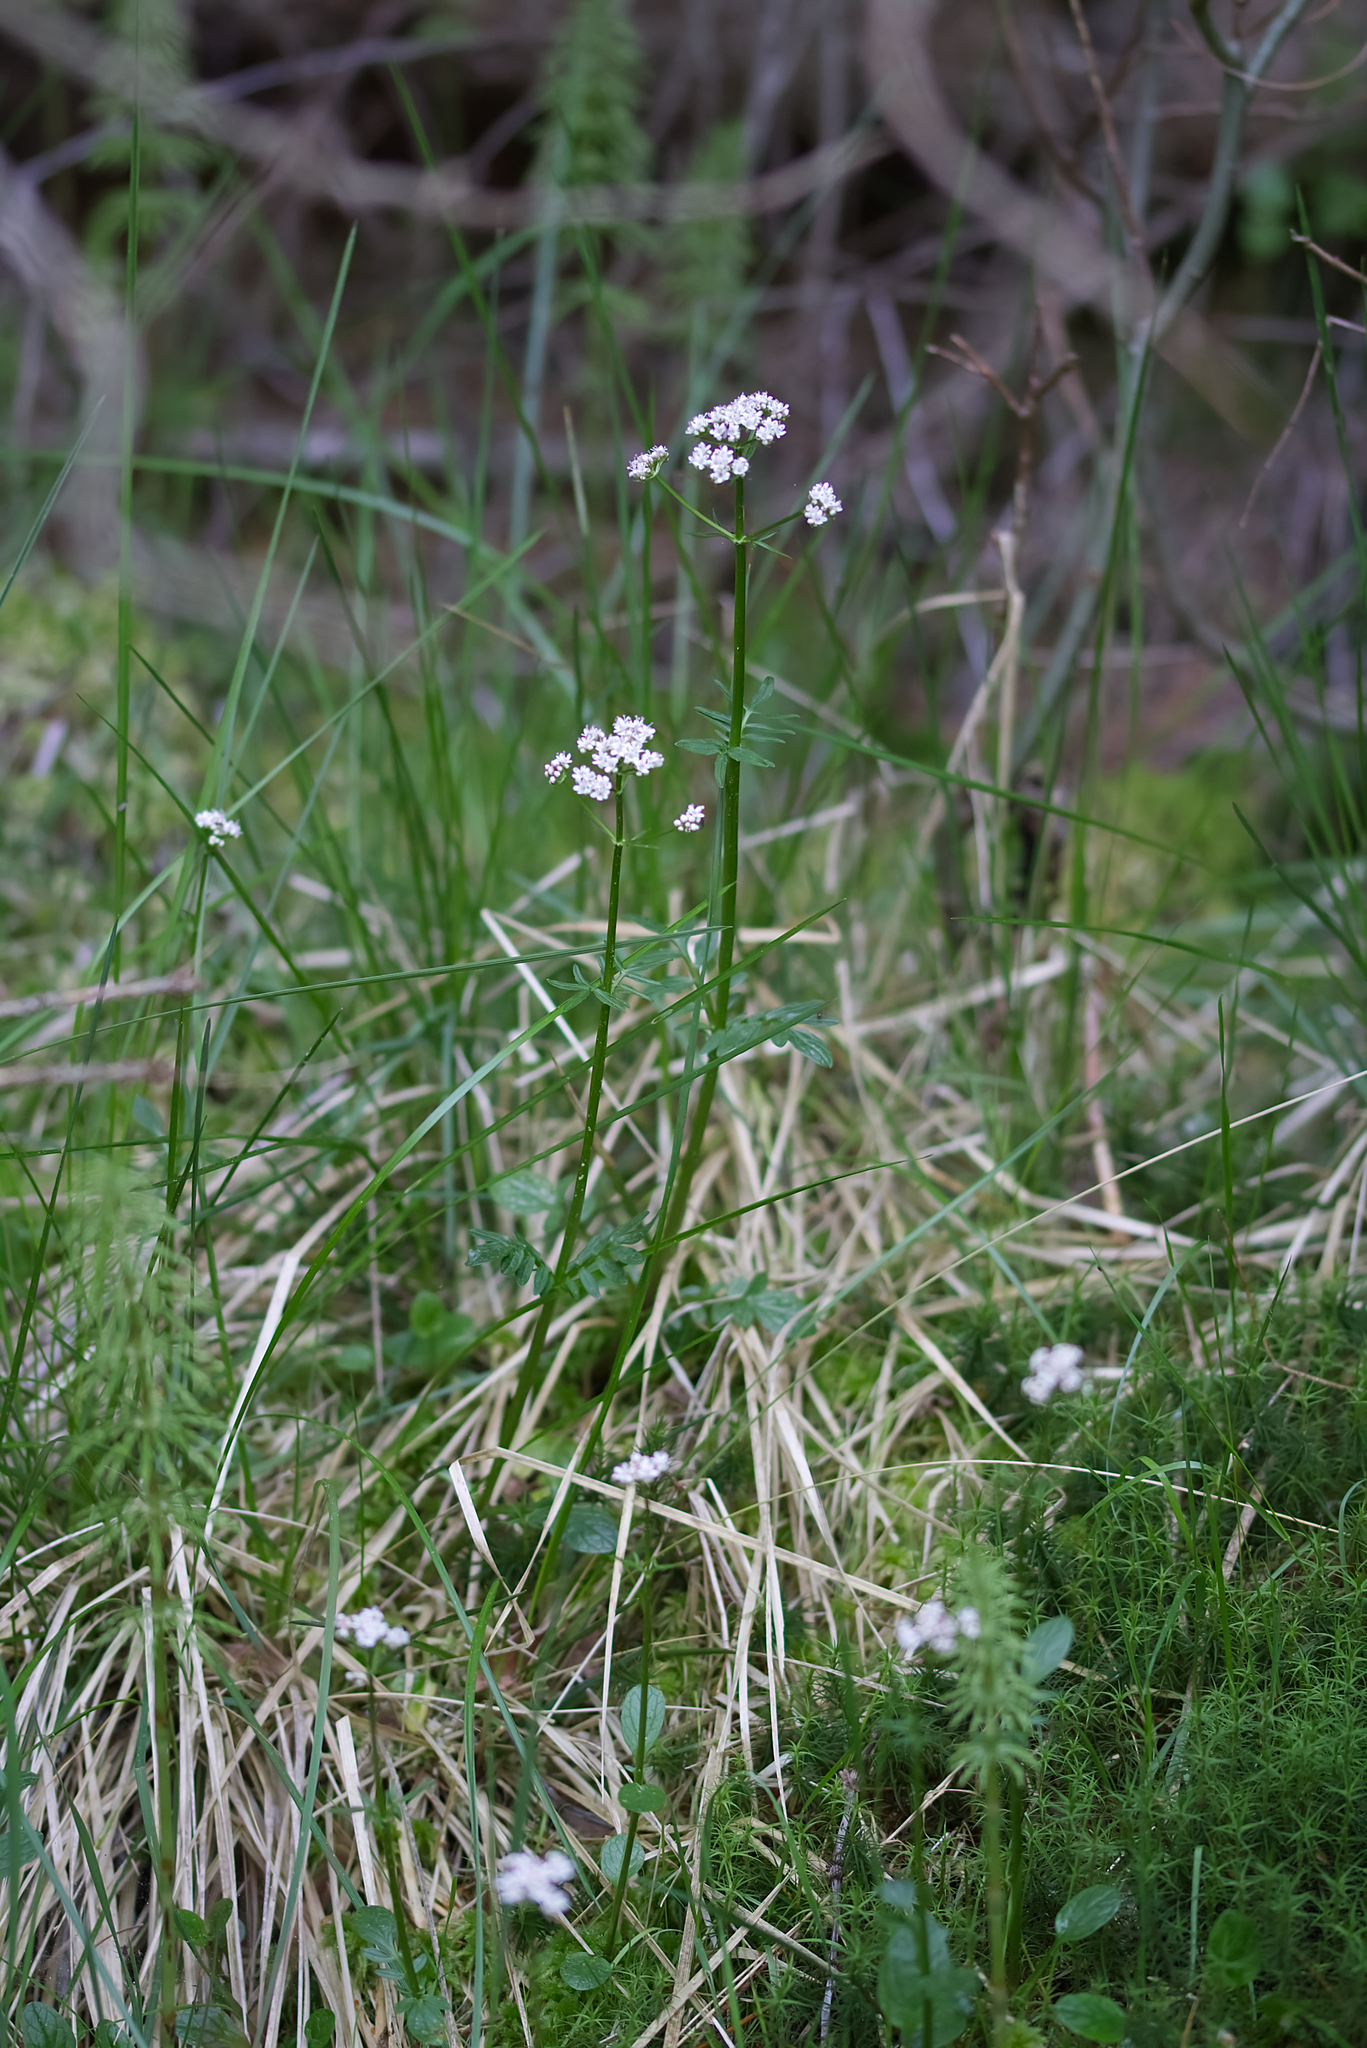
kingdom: Plantae
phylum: Tracheophyta
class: Magnoliopsida
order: Dipsacales
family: Caprifoliaceae
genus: Valeriana
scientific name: Valeriana dioica
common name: Marsh valerian
